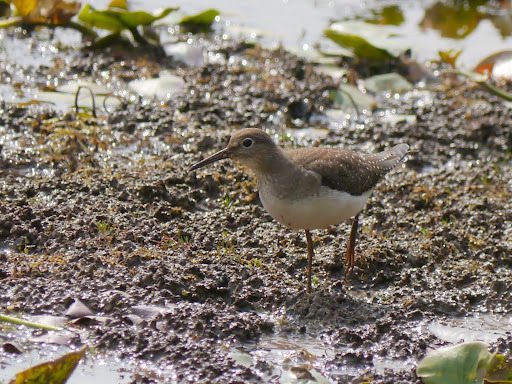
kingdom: Animalia
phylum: Chordata
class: Aves
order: Charadriiformes
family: Scolopacidae
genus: Tringa
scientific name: Tringa solitaria
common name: Solitary sandpiper
